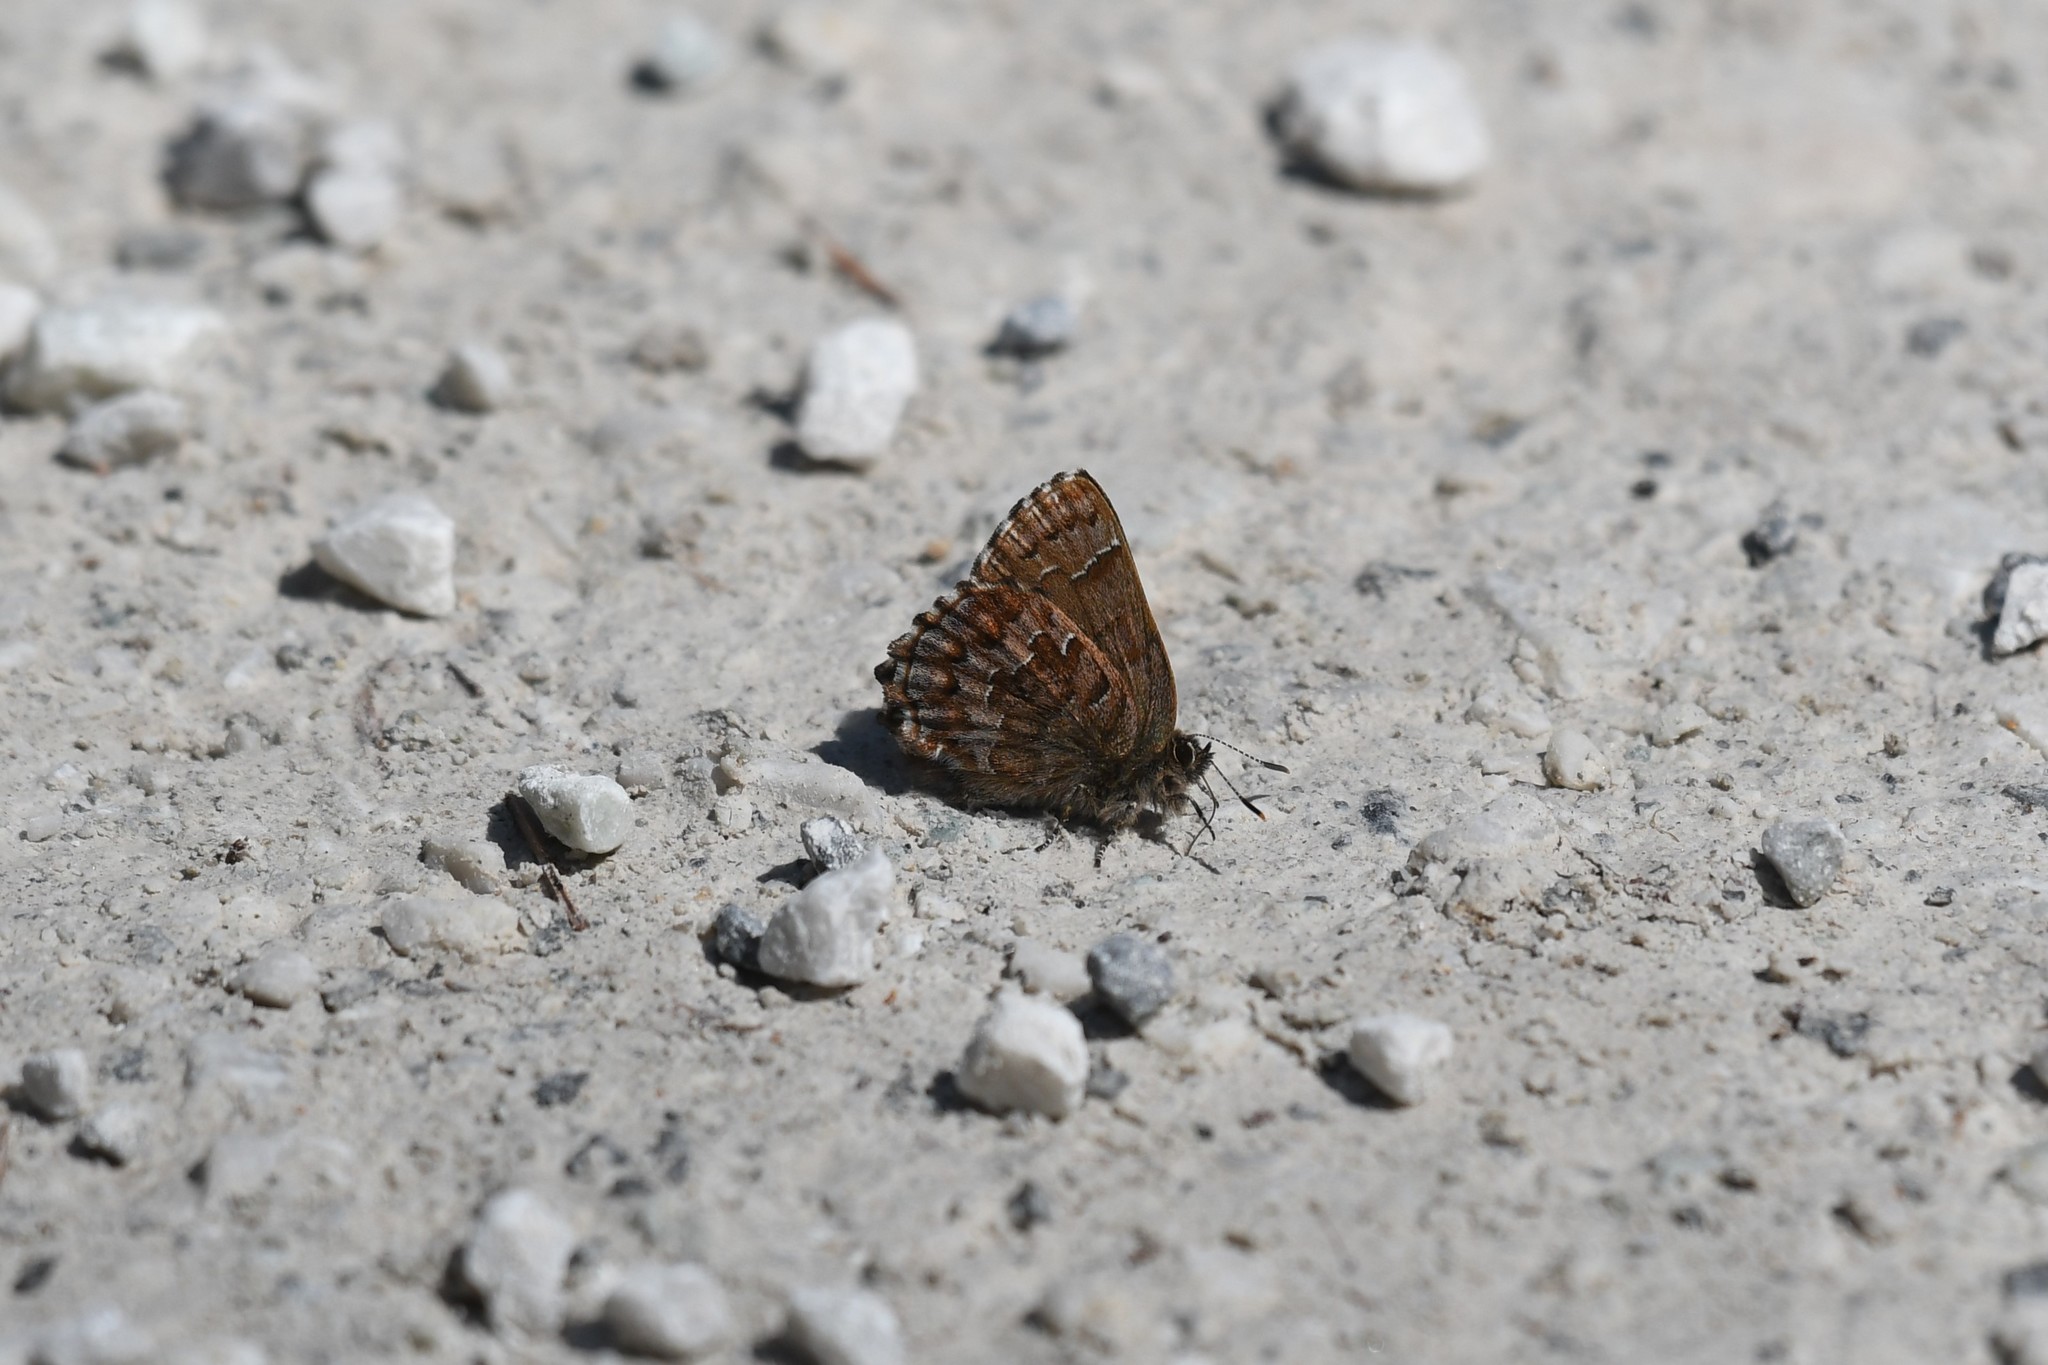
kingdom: Animalia
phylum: Arthropoda
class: Insecta
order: Lepidoptera
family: Lycaenidae
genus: Incisalia
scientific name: Incisalia niphon
